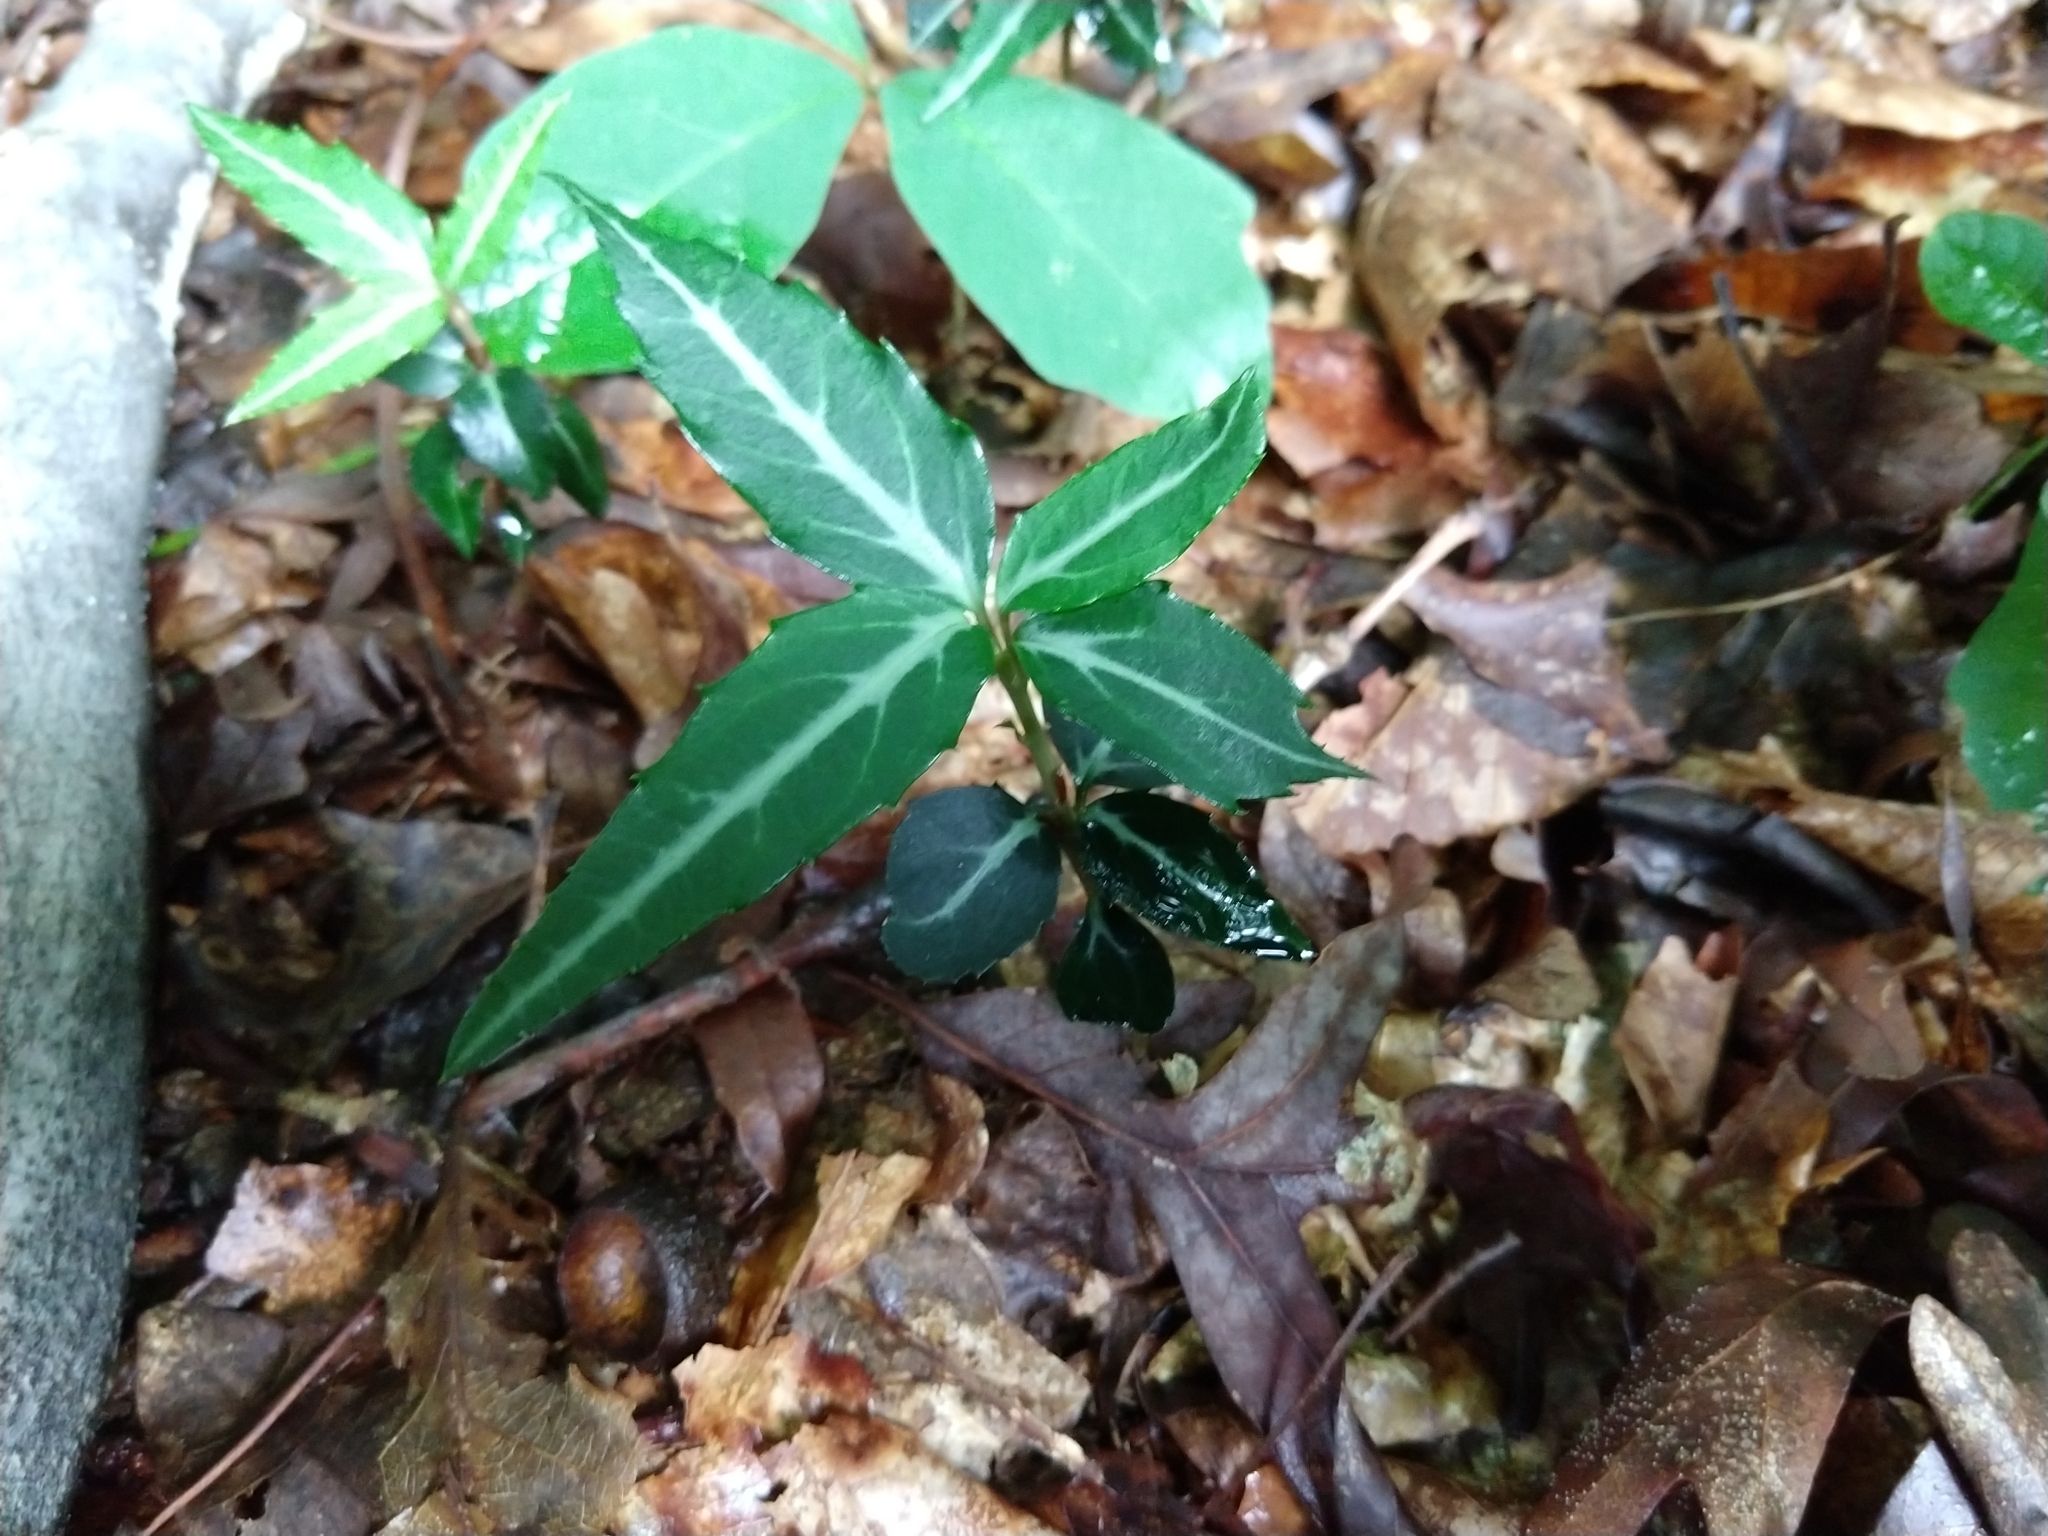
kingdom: Plantae
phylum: Tracheophyta
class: Magnoliopsida
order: Ericales
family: Ericaceae
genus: Chimaphila
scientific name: Chimaphila maculata
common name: Spotted pipsissewa
